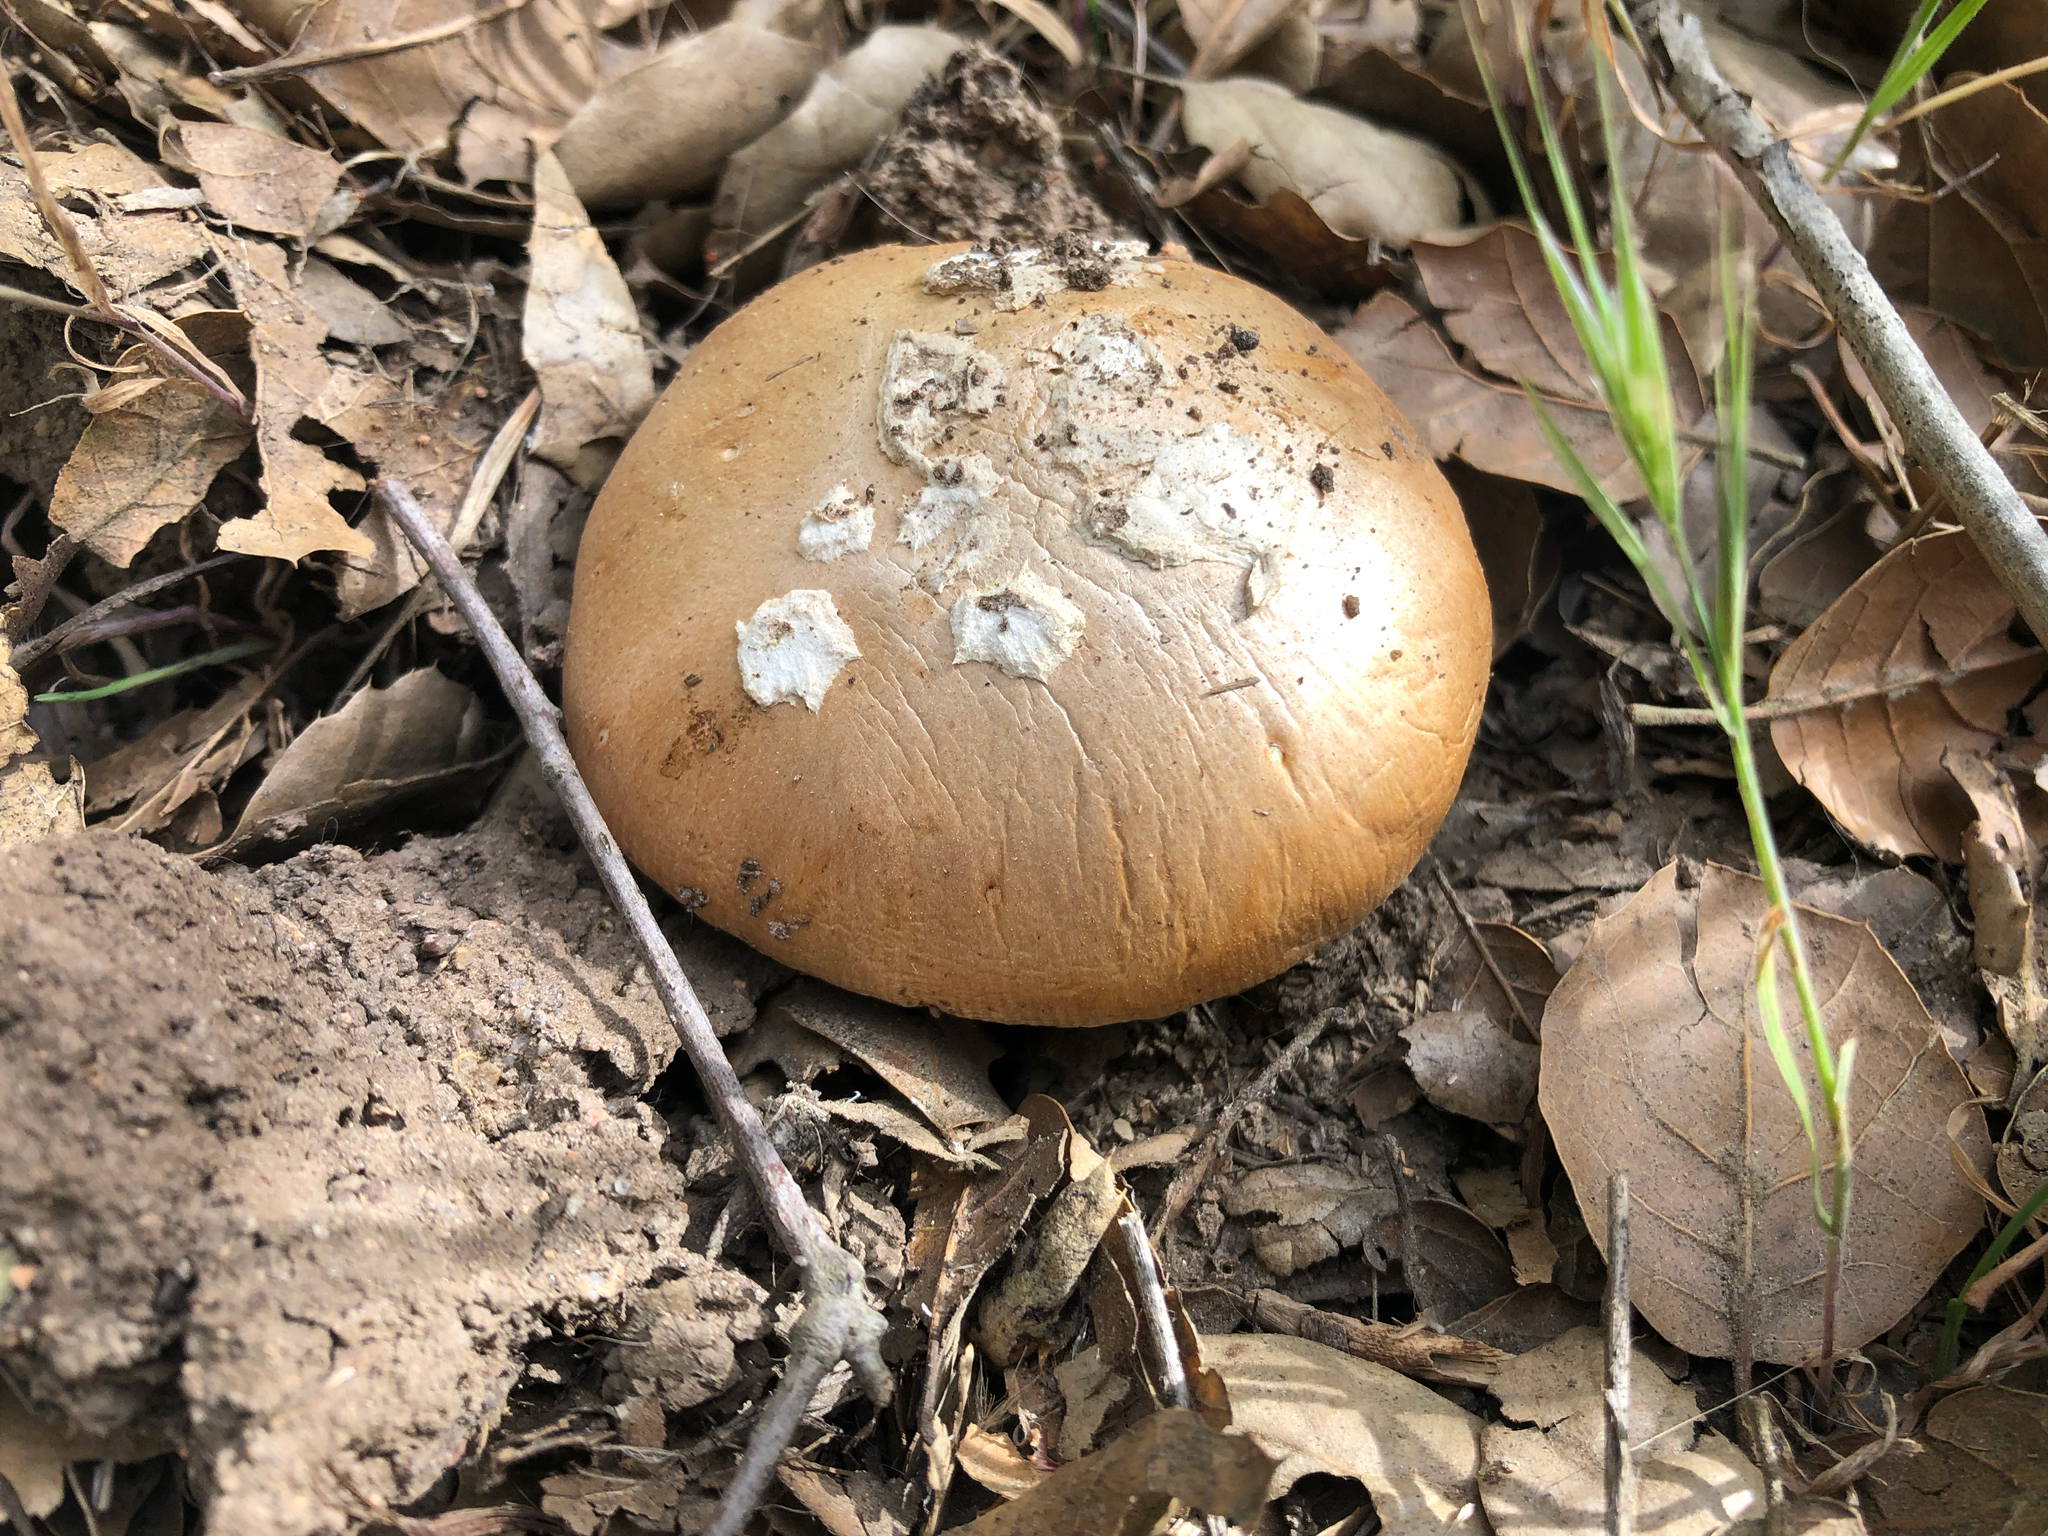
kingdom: Fungi
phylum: Basidiomycota
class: Agaricomycetes
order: Agaricales
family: Amanitaceae
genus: Amanita
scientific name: Amanita velosa
